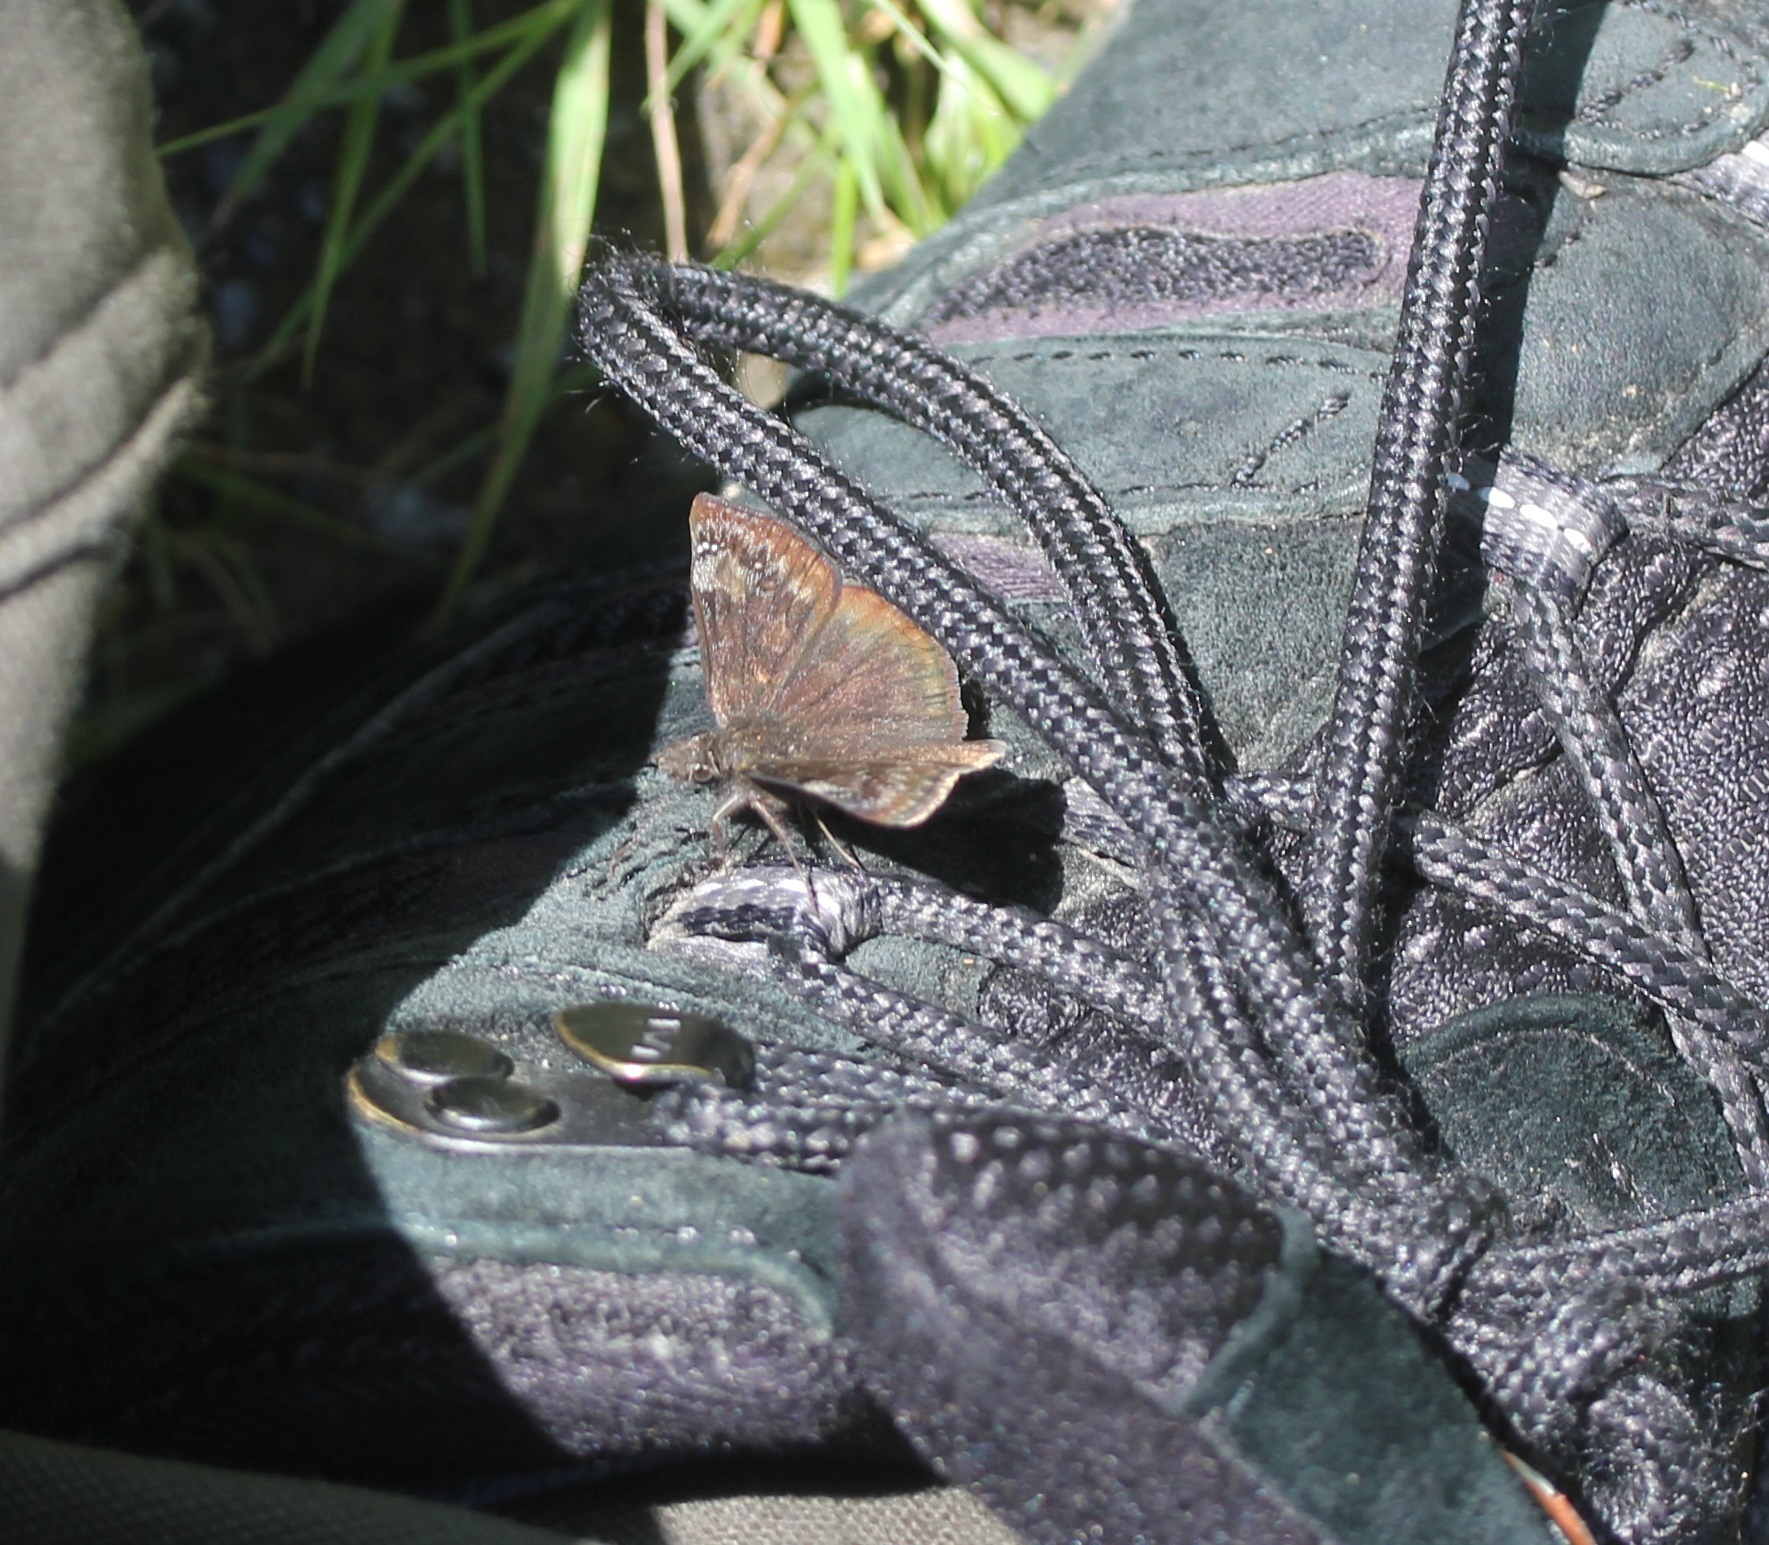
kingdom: Animalia
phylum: Arthropoda
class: Insecta
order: Lepidoptera
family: Hesperiidae
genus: Erynnis
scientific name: Erynnis baptisiae
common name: Wild indigo duskywing
